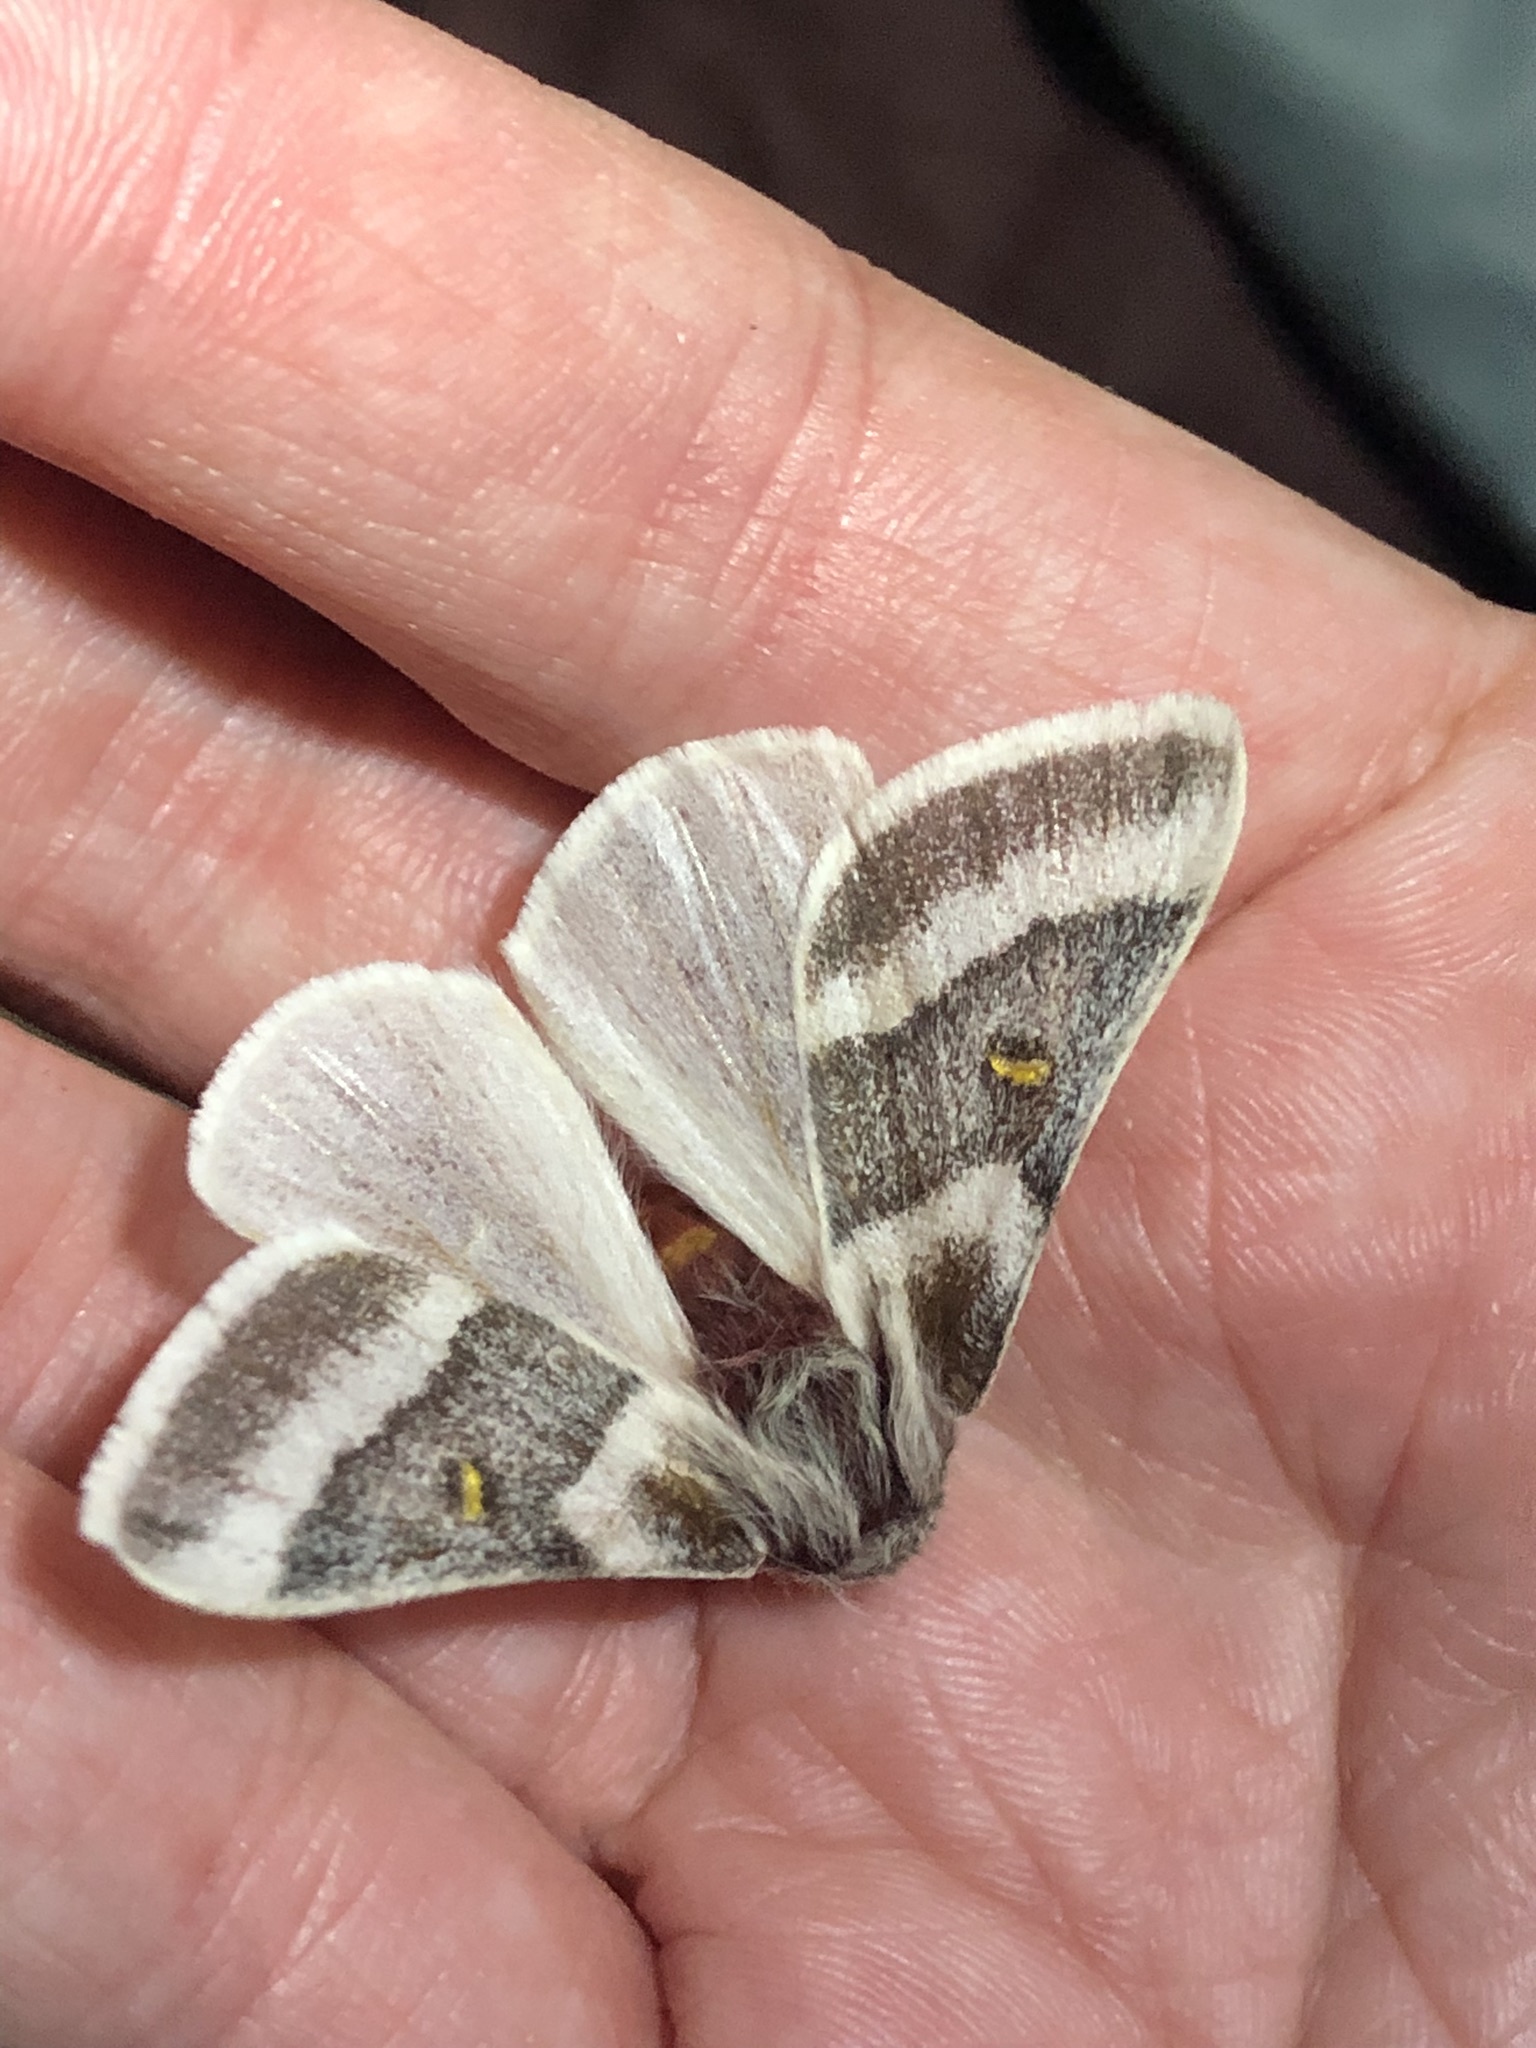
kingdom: Animalia
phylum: Arthropoda
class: Insecta
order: Lepidoptera
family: Saturniidae
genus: Hemileuca
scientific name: Hemileuca tricolor
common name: Tricolor buckmoth
